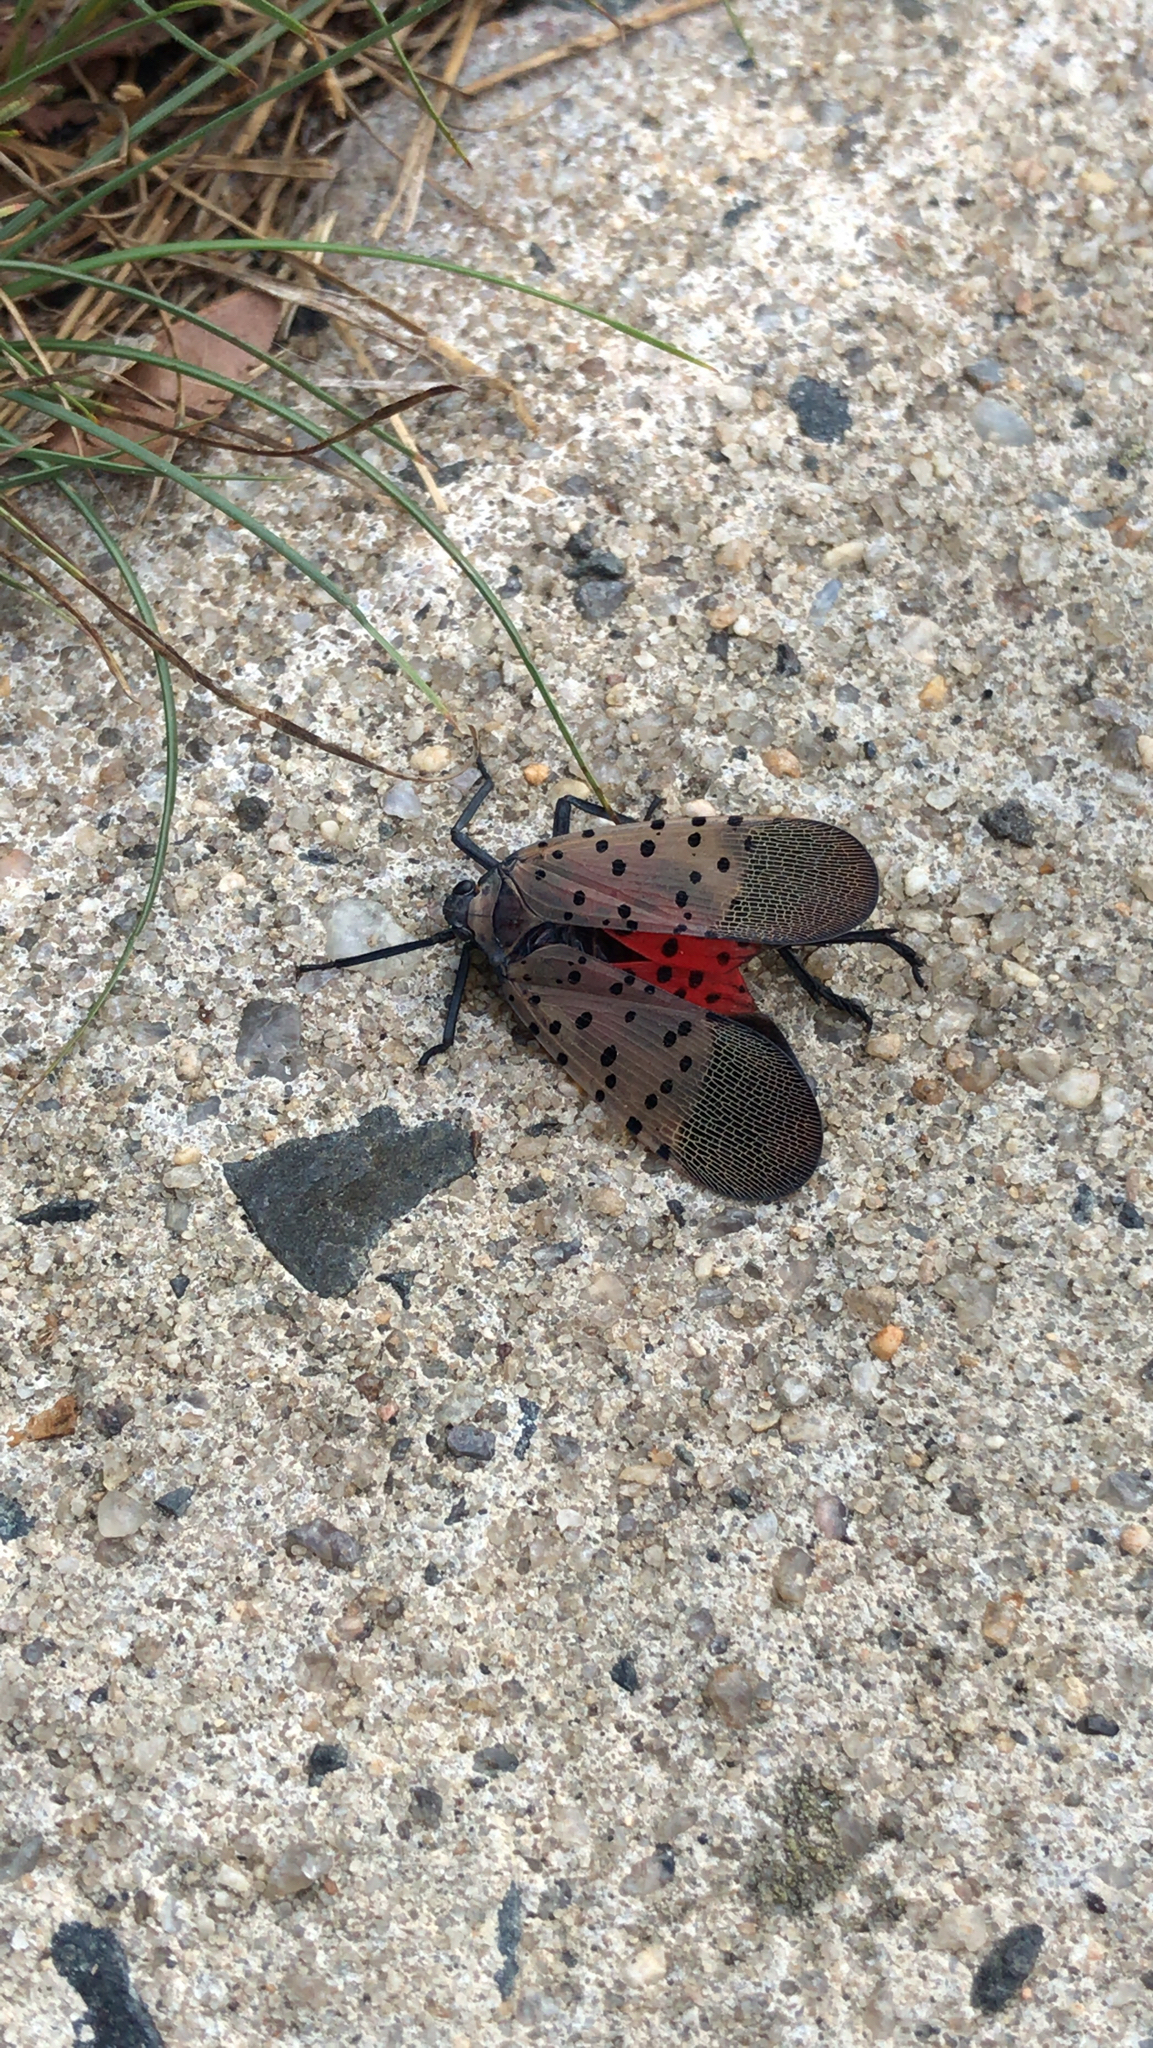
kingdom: Animalia
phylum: Arthropoda
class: Insecta
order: Hemiptera
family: Fulgoridae
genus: Lycorma
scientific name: Lycorma delicatula
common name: Spotted lanternfly
